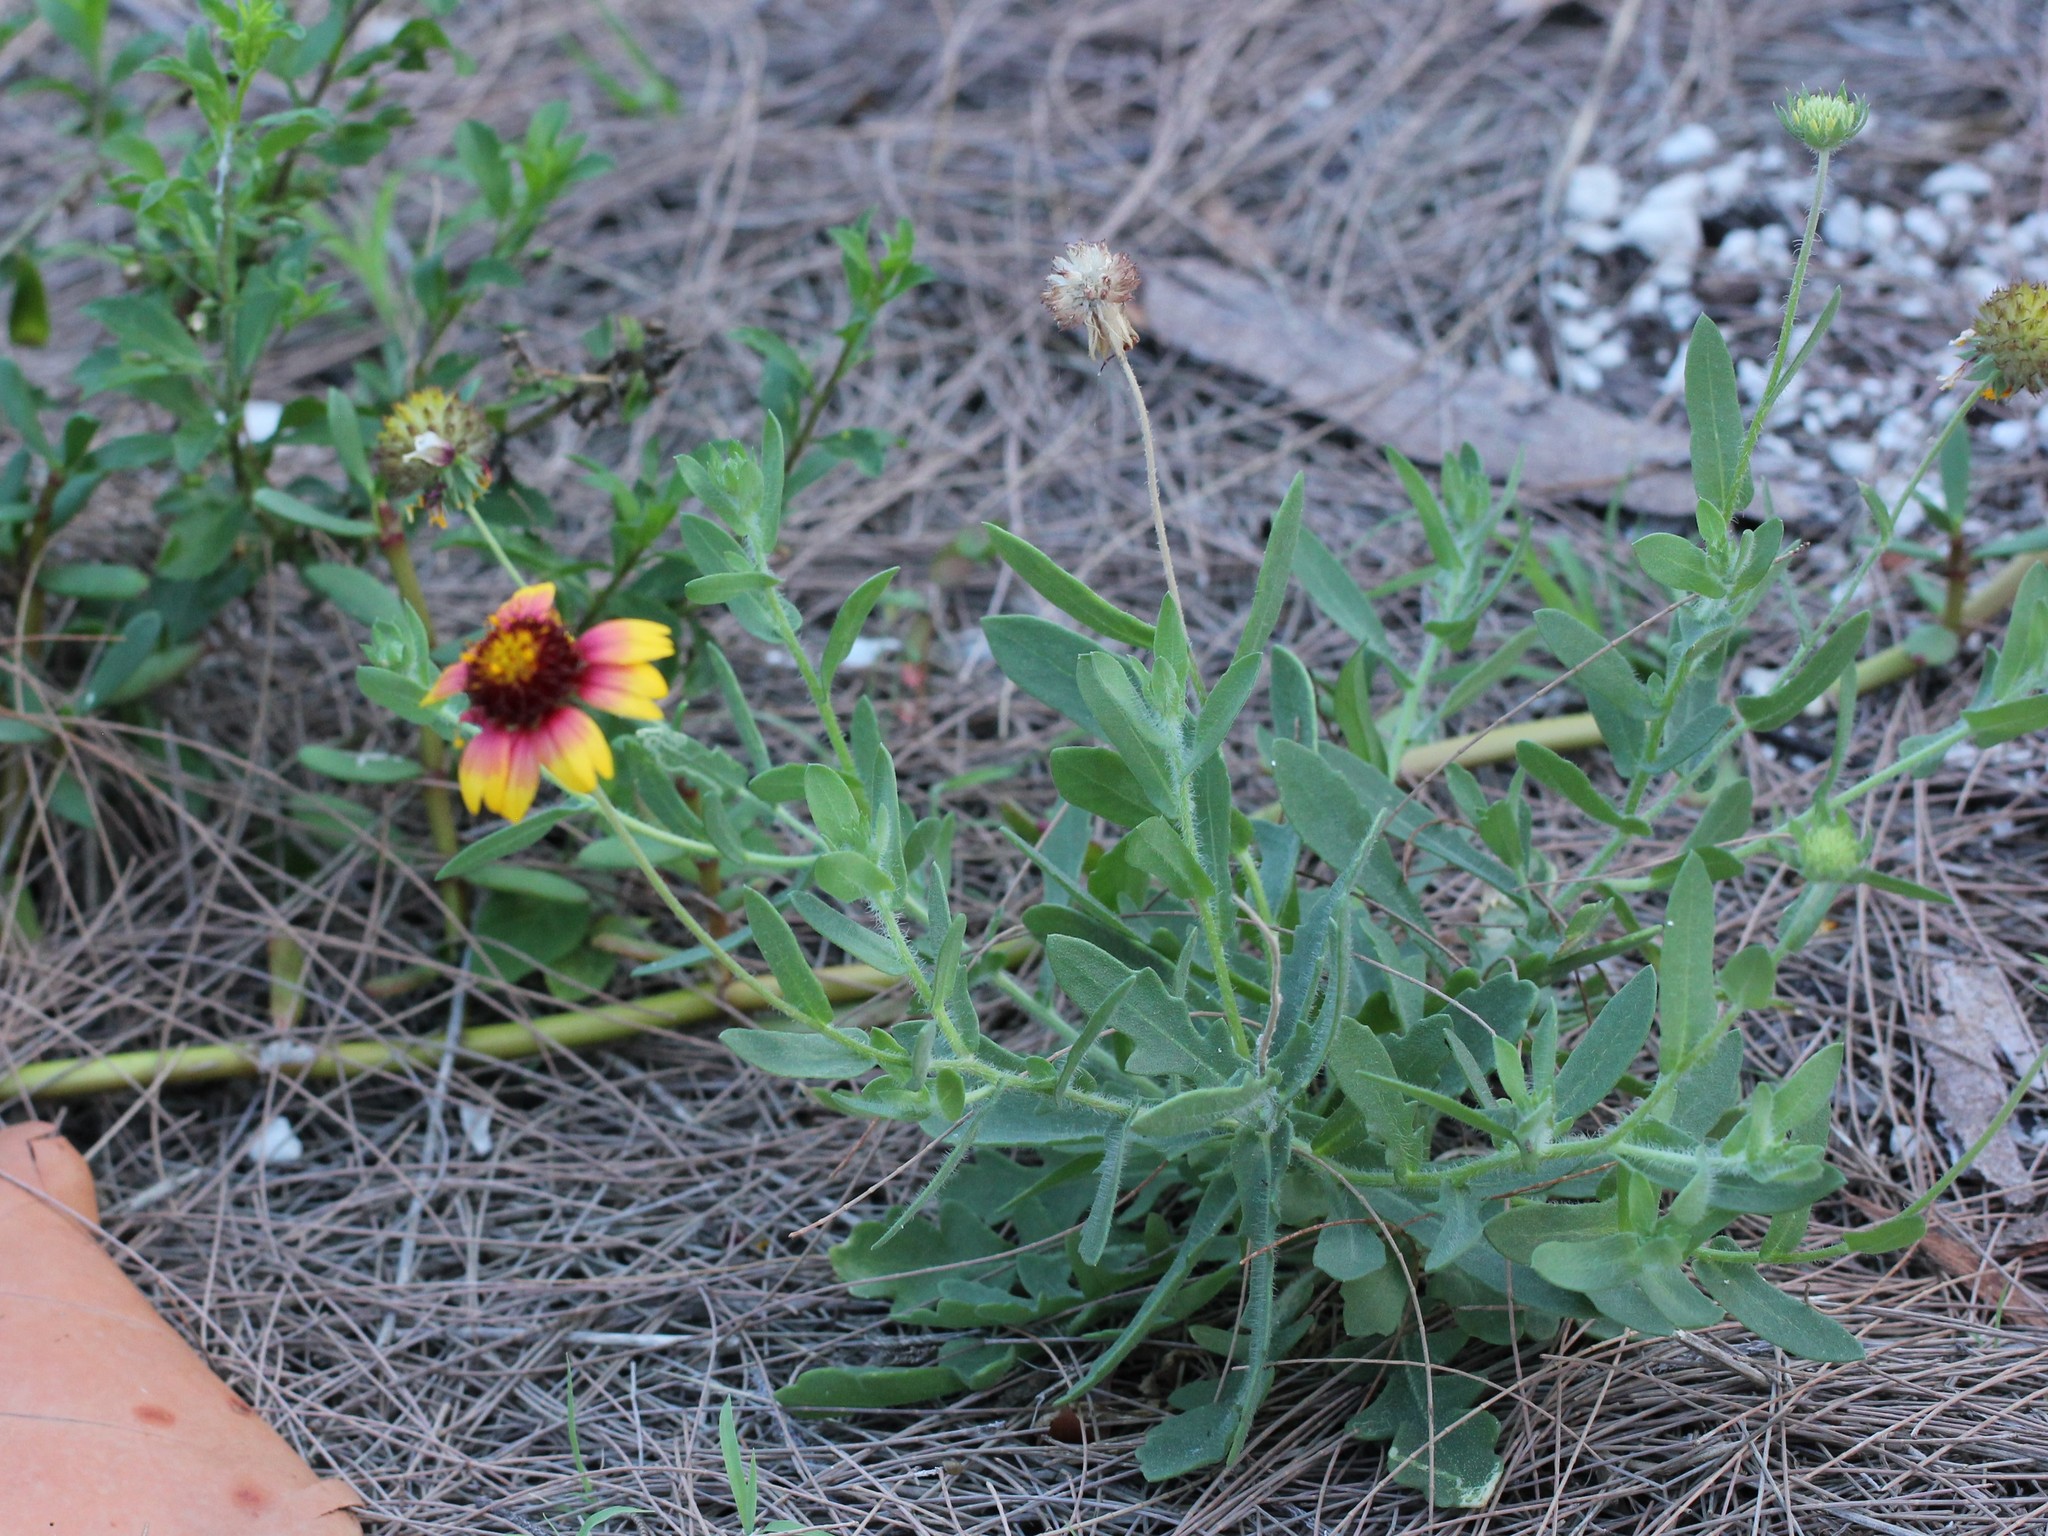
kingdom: Plantae
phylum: Tracheophyta
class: Magnoliopsida
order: Asterales
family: Asteraceae
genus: Gaillardia
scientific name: Gaillardia pulchella
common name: Firewheel
